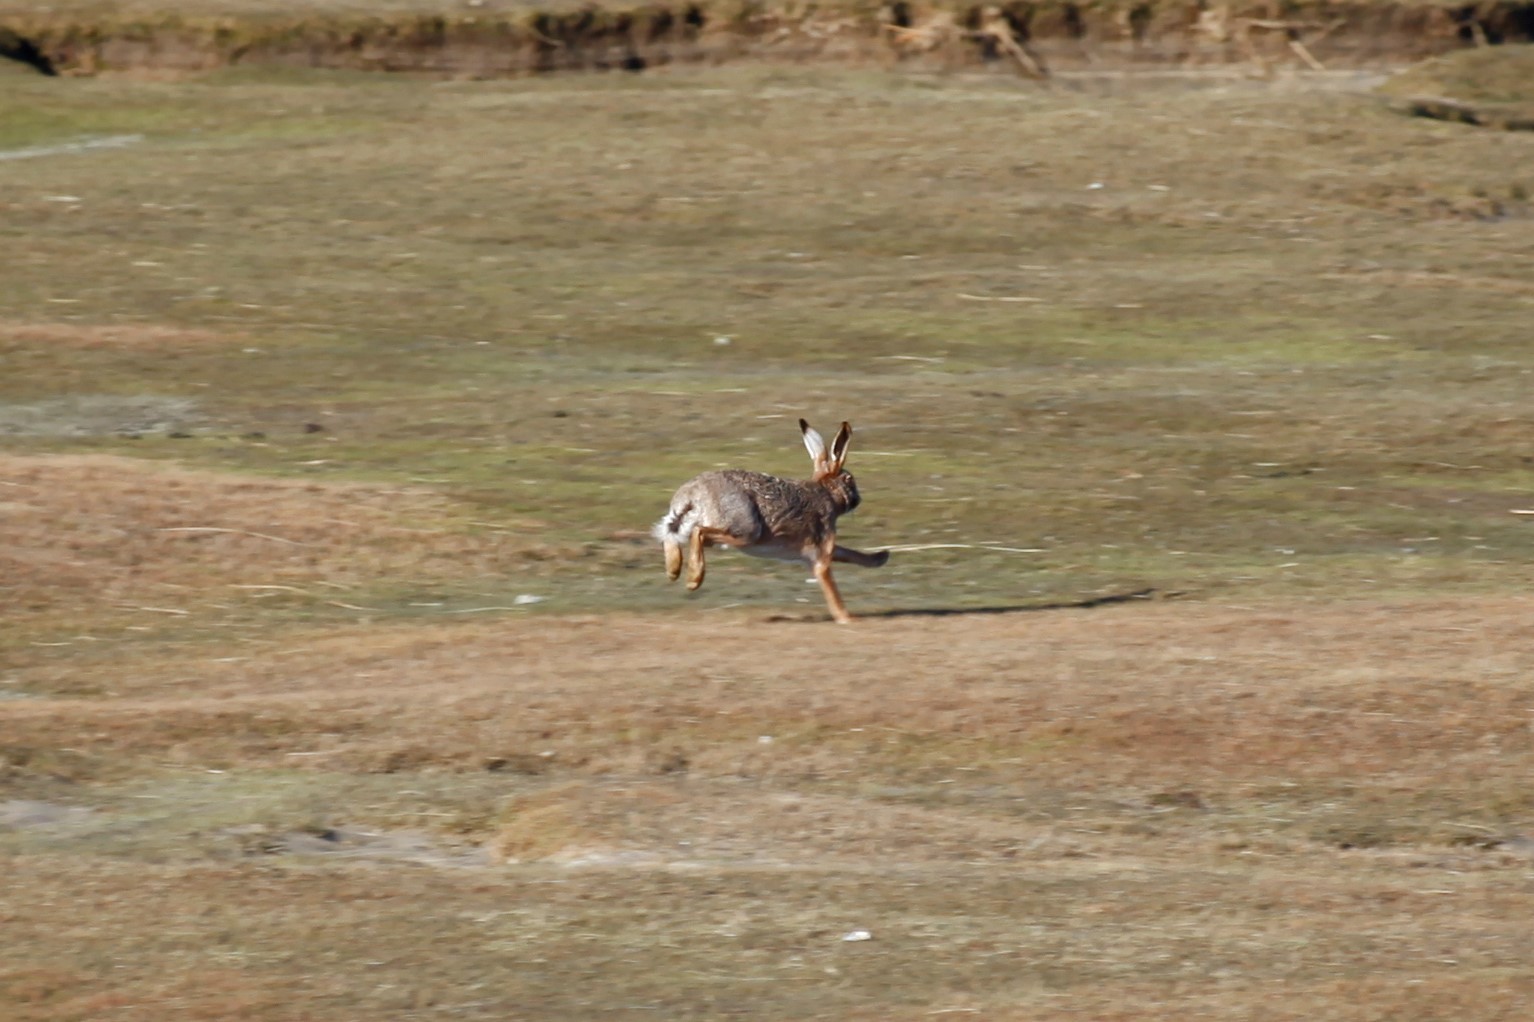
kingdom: Animalia
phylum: Chordata
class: Mammalia
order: Lagomorpha
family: Leporidae
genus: Lepus
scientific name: Lepus europaeus
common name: European hare
